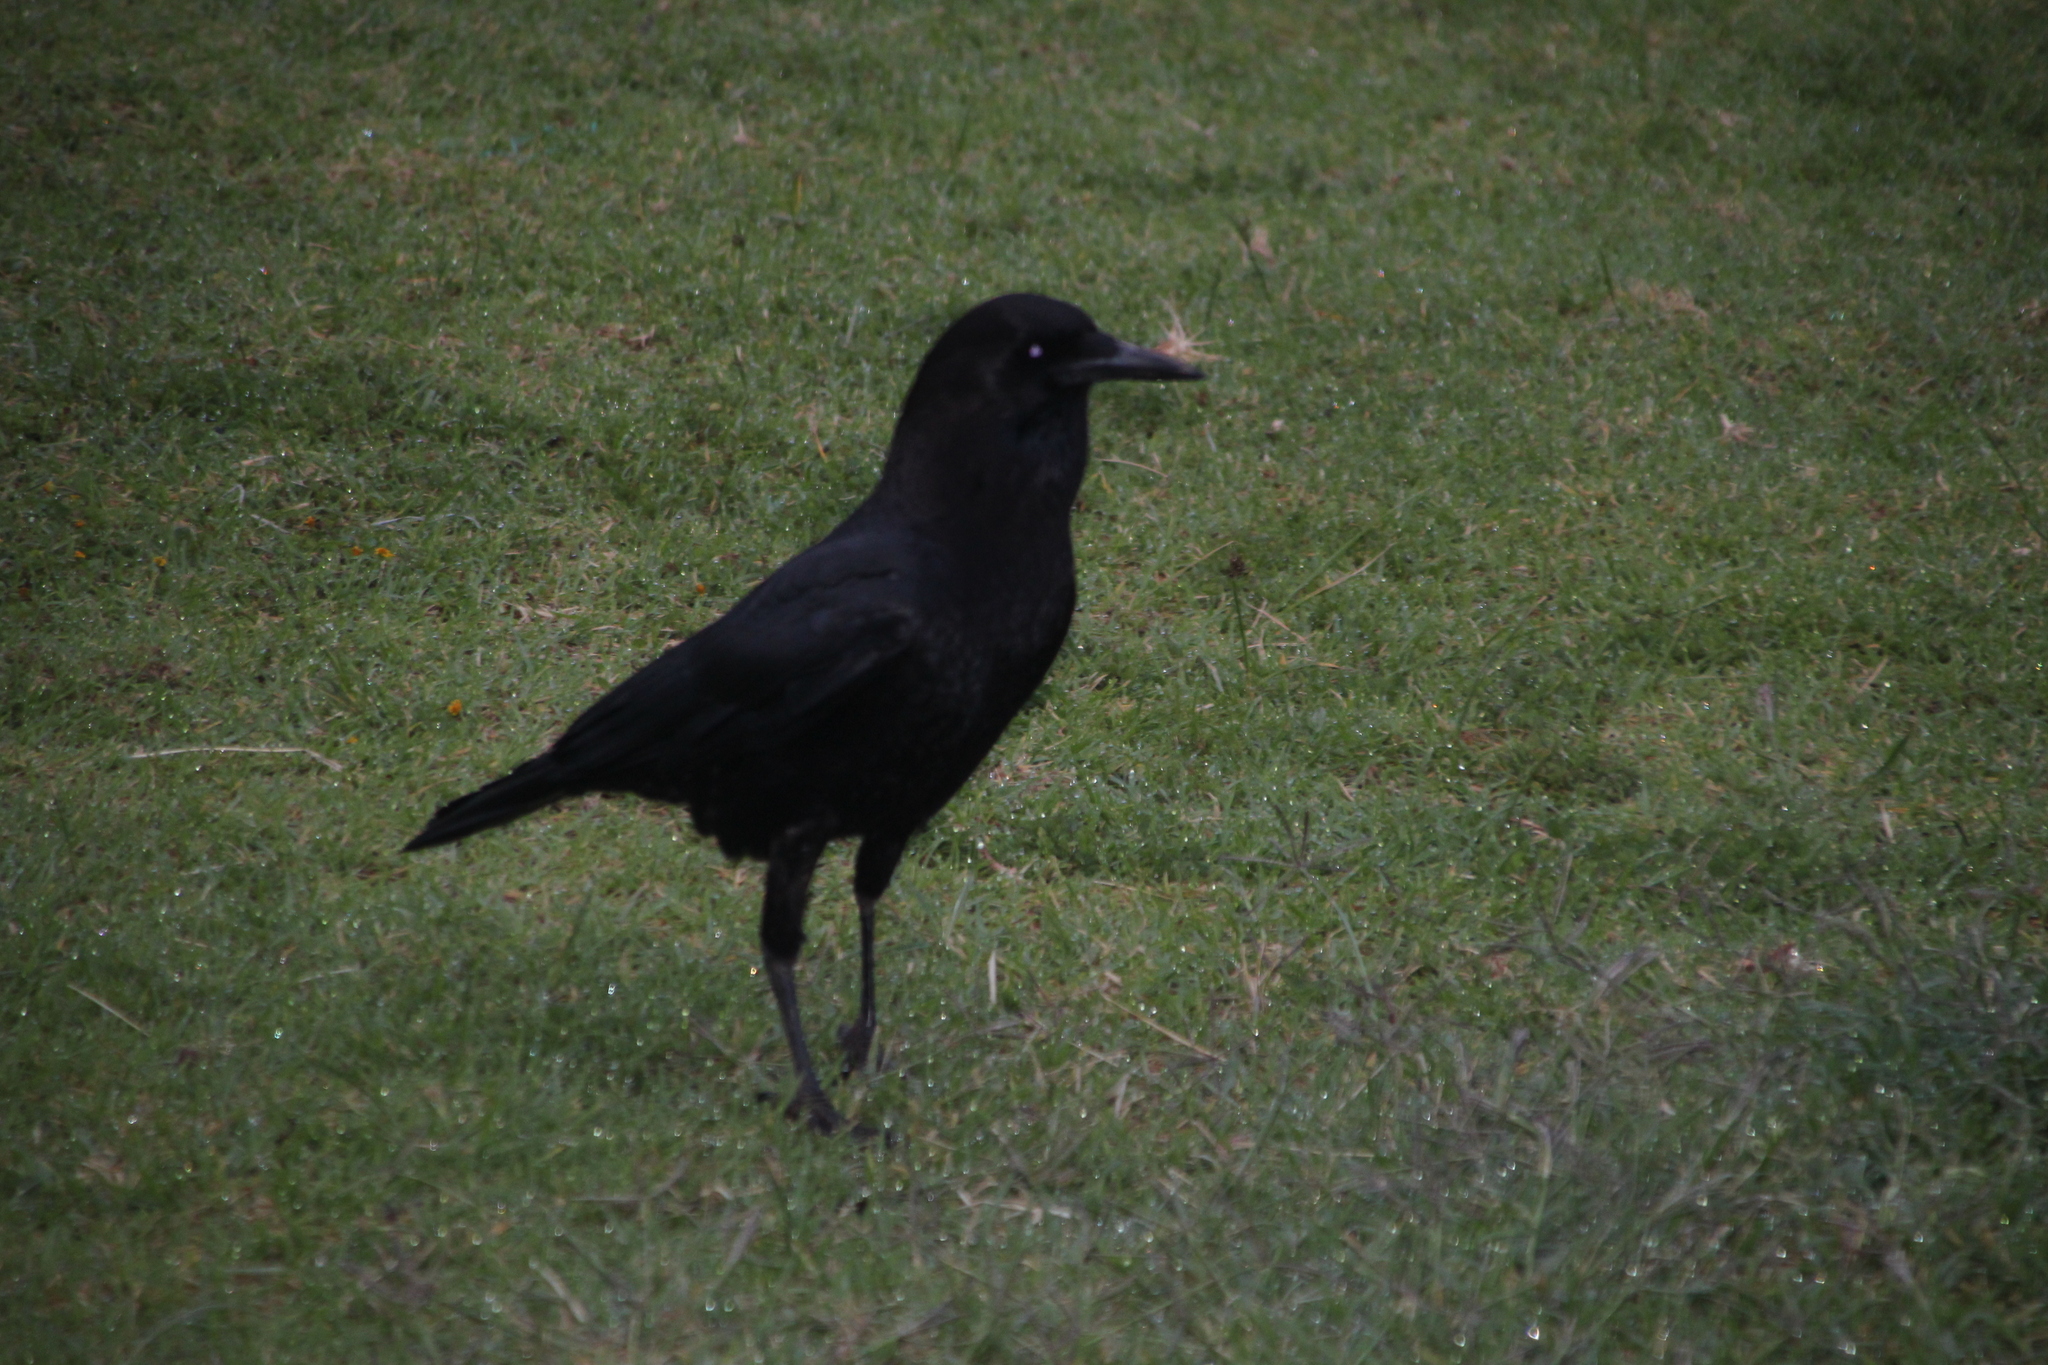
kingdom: Animalia
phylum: Chordata
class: Aves
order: Passeriformes
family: Corvidae
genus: Corvus
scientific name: Corvus capensis
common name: Cape crow
